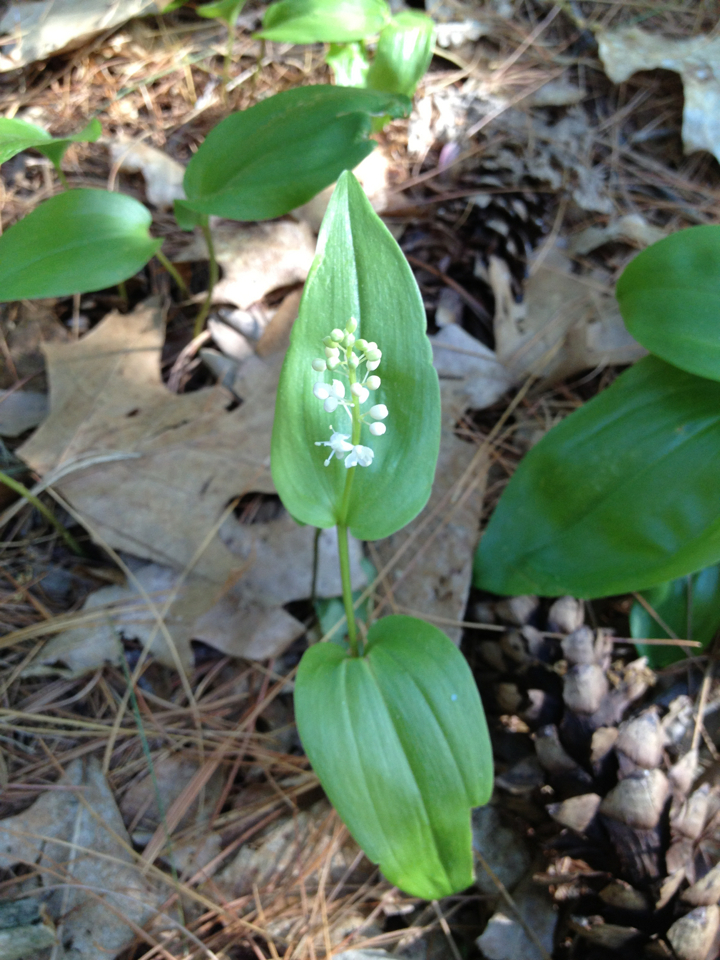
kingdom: Plantae
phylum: Tracheophyta
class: Liliopsida
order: Asparagales
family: Asparagaceae
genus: Maianthemum
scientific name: Maianthemum canadense
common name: False lily-of-the-valley
